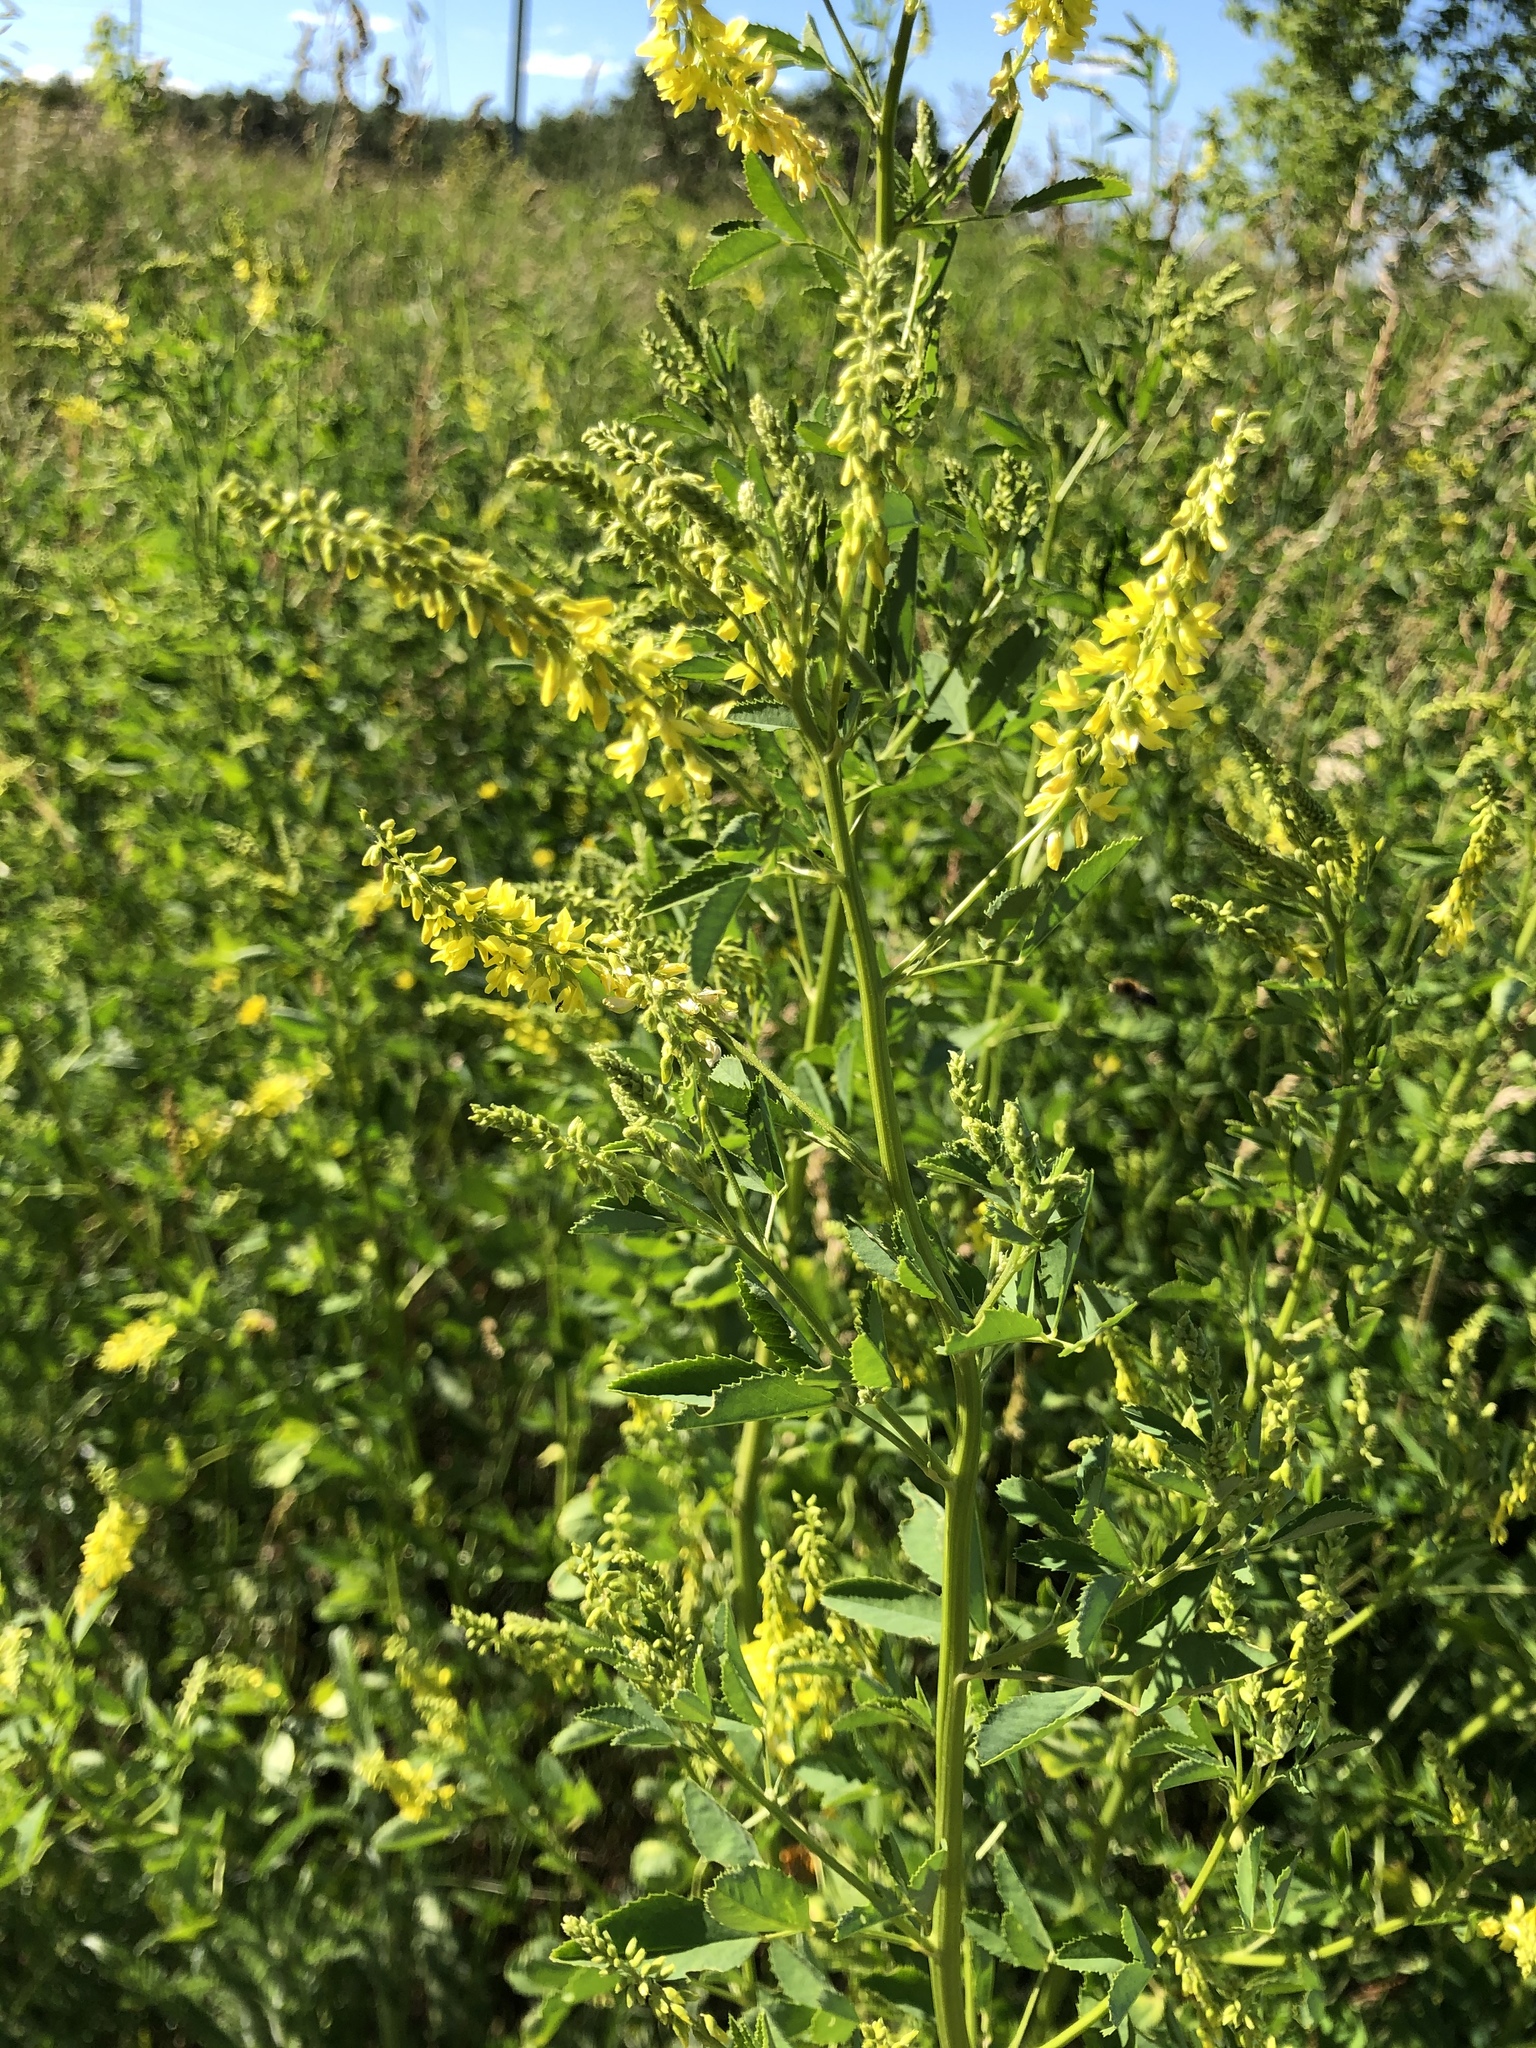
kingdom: Plantae
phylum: Tracheophyta
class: Magnoliopsida
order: Fabales
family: Fabaceae
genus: Melilotus
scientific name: Melilotus officinalis
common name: Sweetclover
